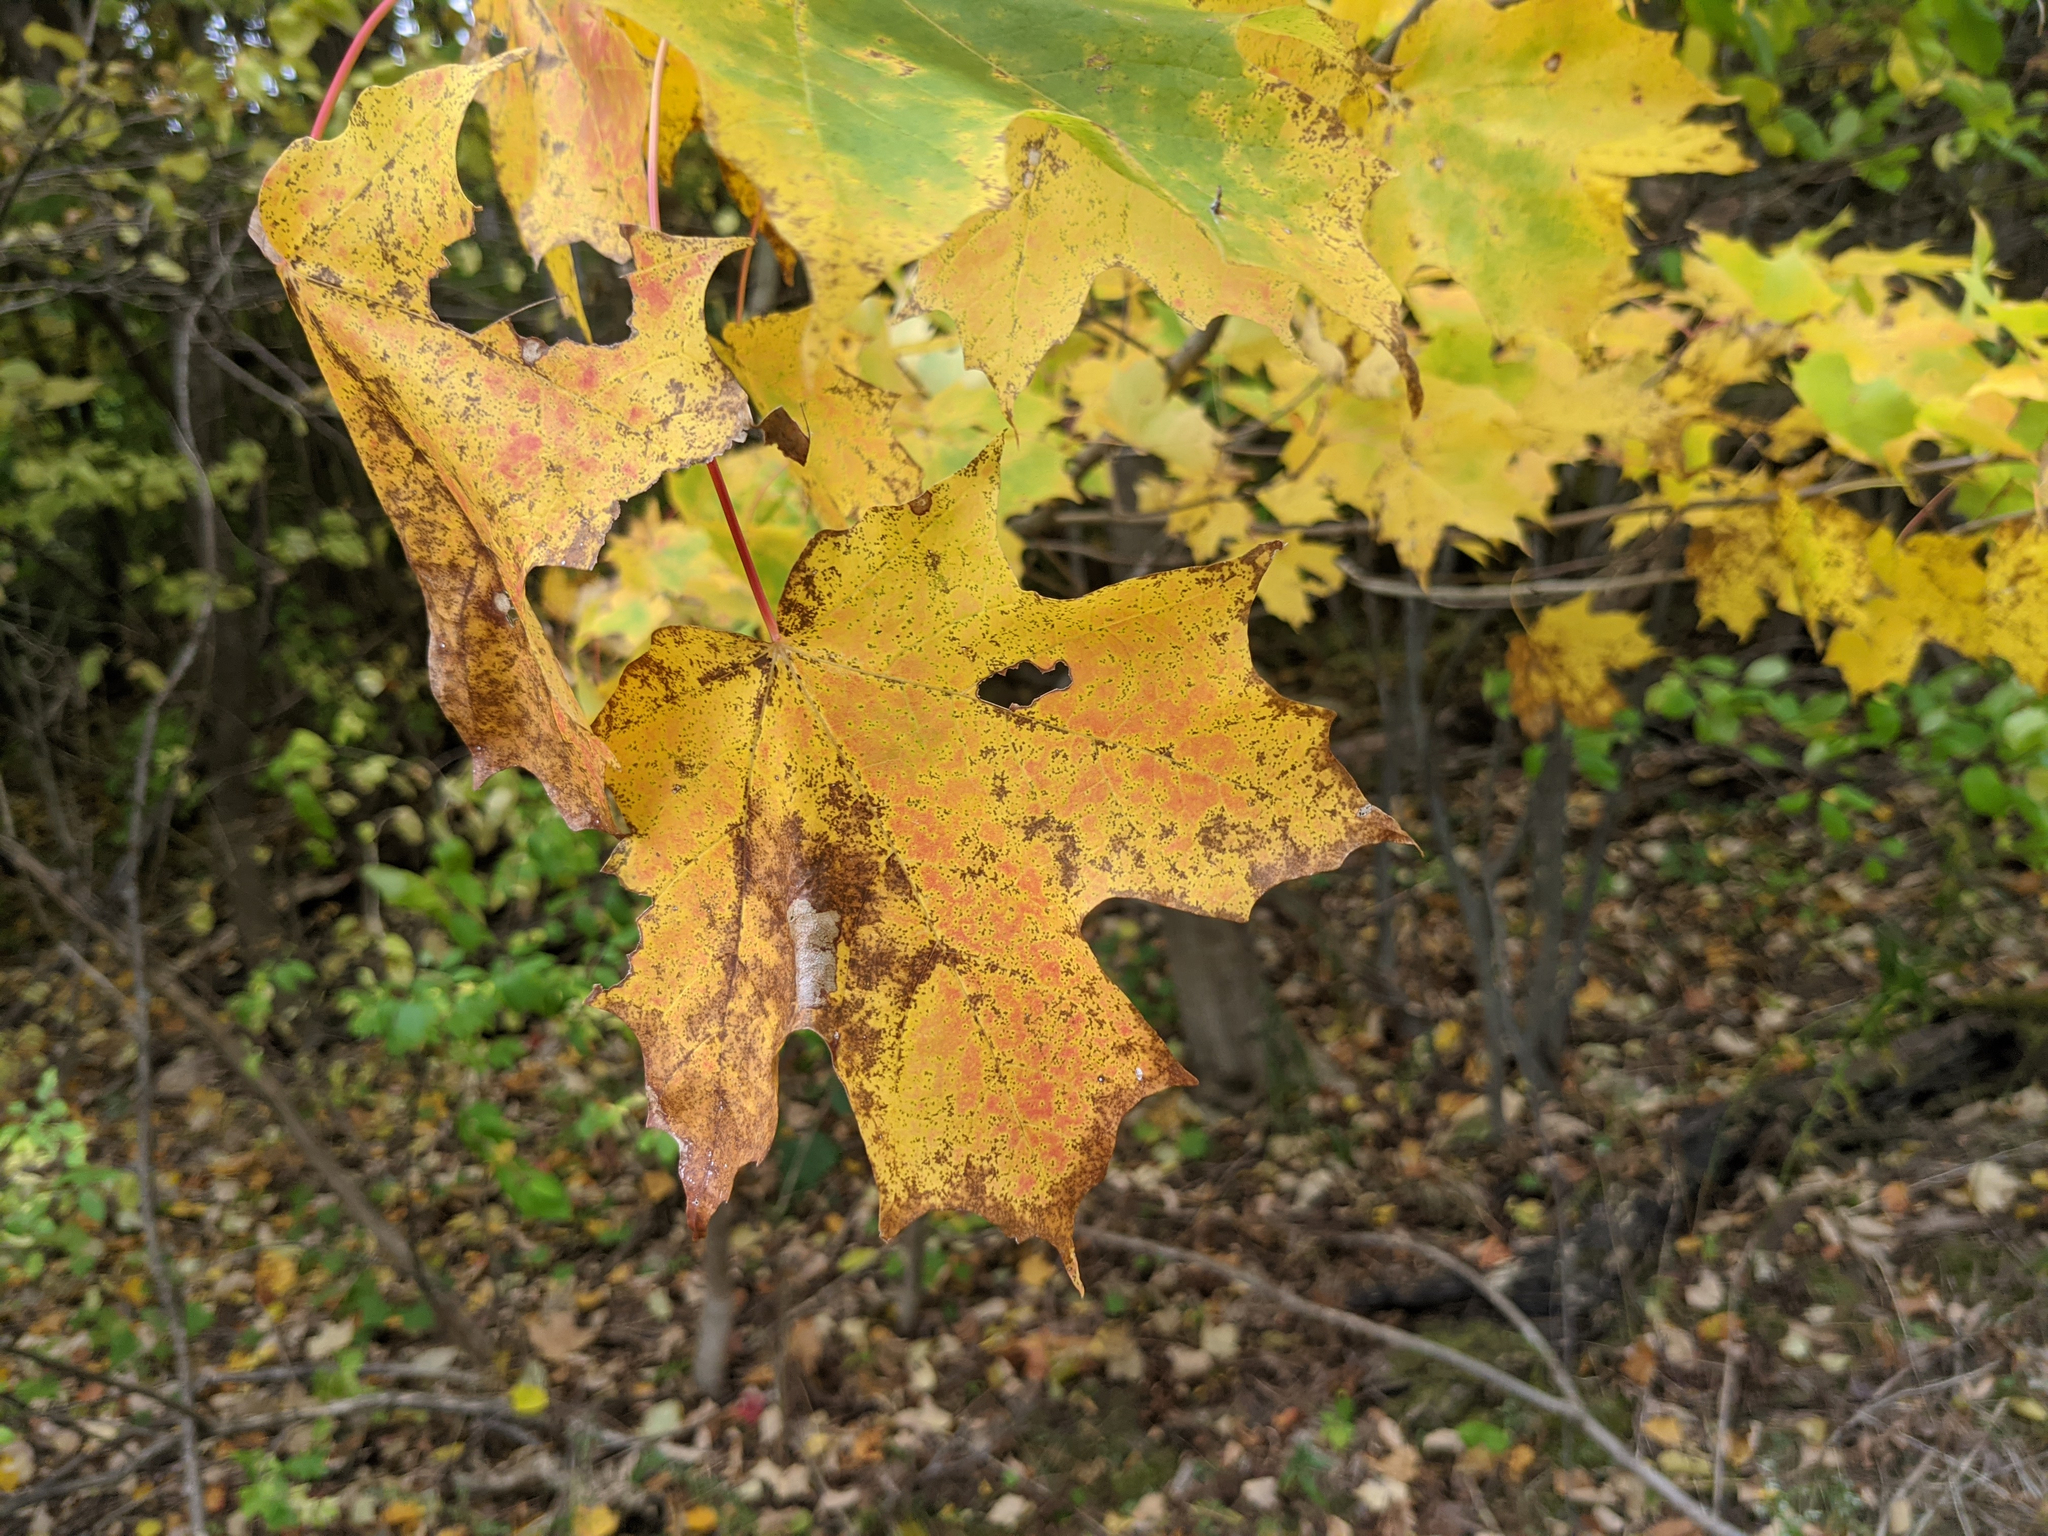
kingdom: Plantae
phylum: Tracheophyta
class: Magnoliopsida
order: Sapindales
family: Sapindaceae
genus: Acer
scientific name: Acer saccharum
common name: Sugar maple
